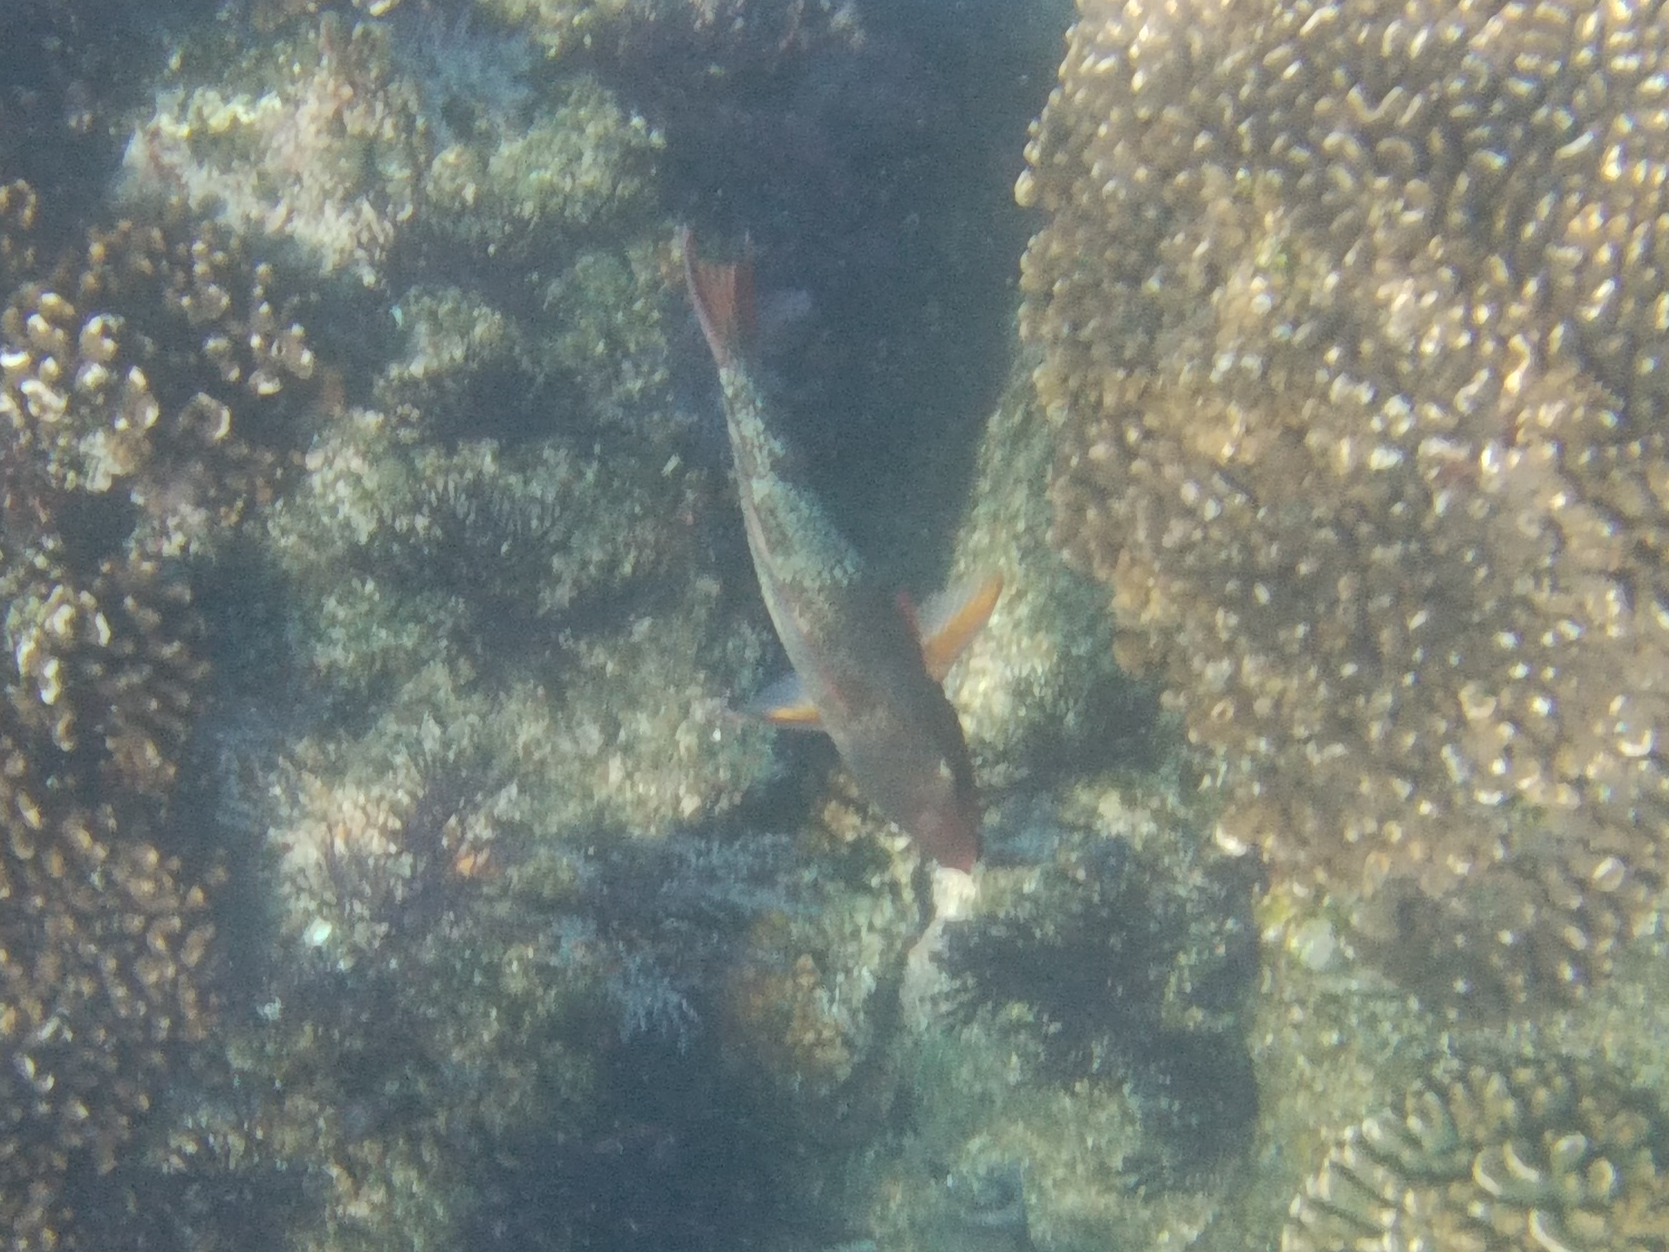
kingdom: Animalia
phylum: Chordata
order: Perciformes
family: Scaridae
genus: Scarus
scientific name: Scarus rubroviolaceus
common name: Ember parrotfish
